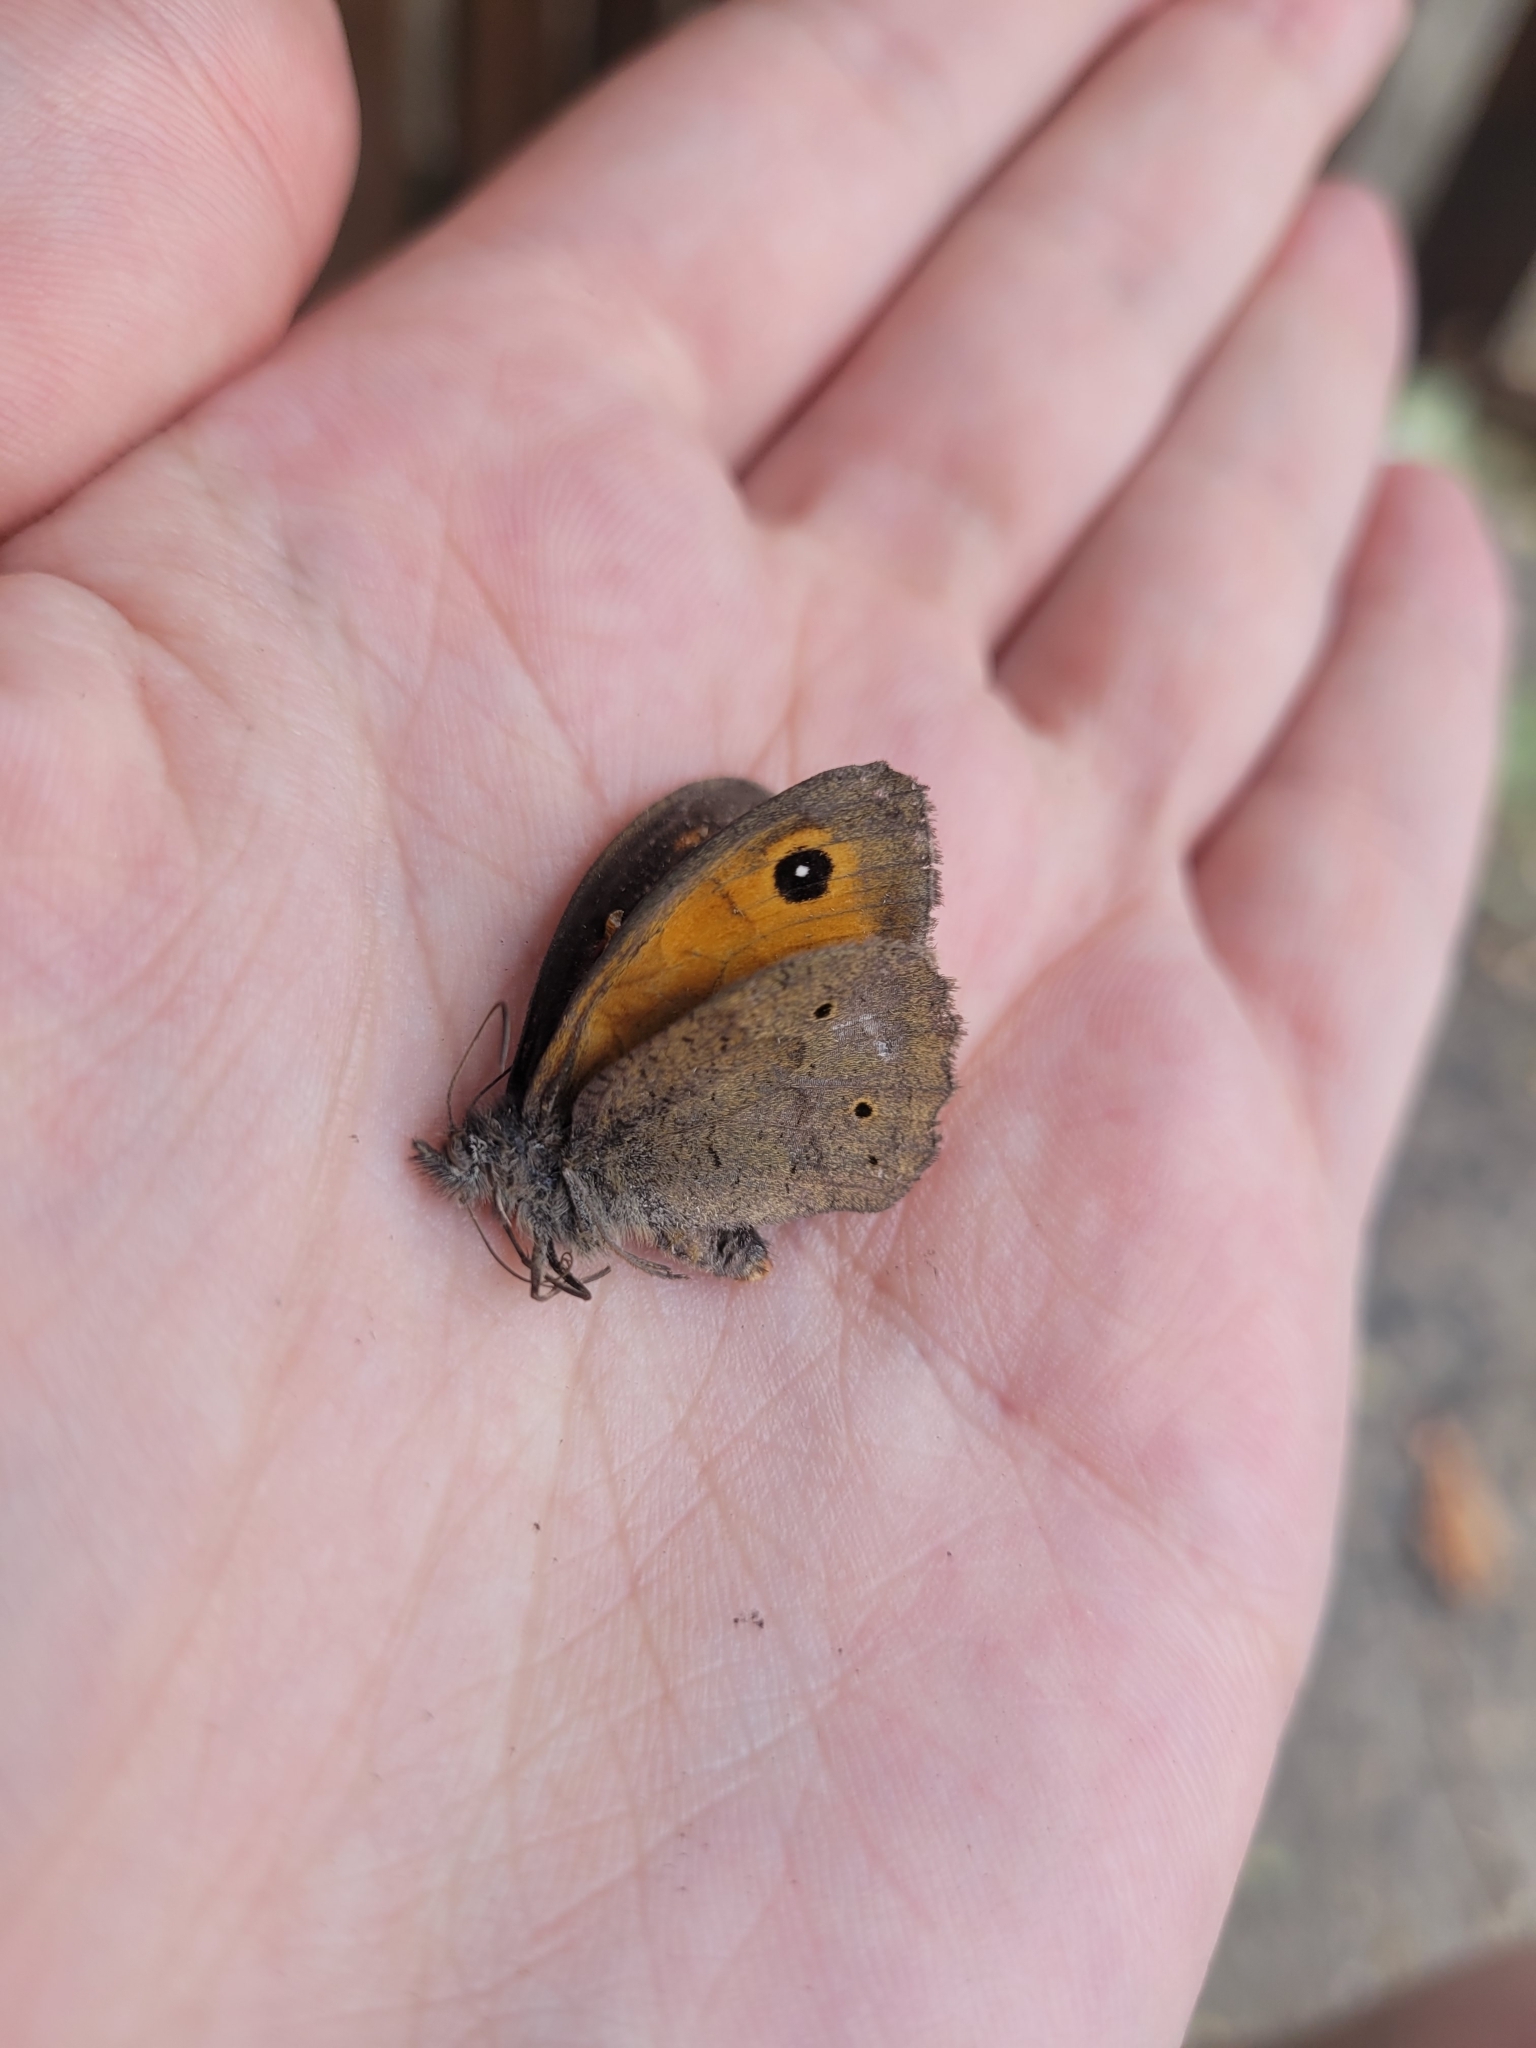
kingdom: Animalia
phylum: Arthropoda
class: Insecta
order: Lepidoptera
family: Nymphalidae
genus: Maniola
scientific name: Maniola jurtina
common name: Meadow brown
